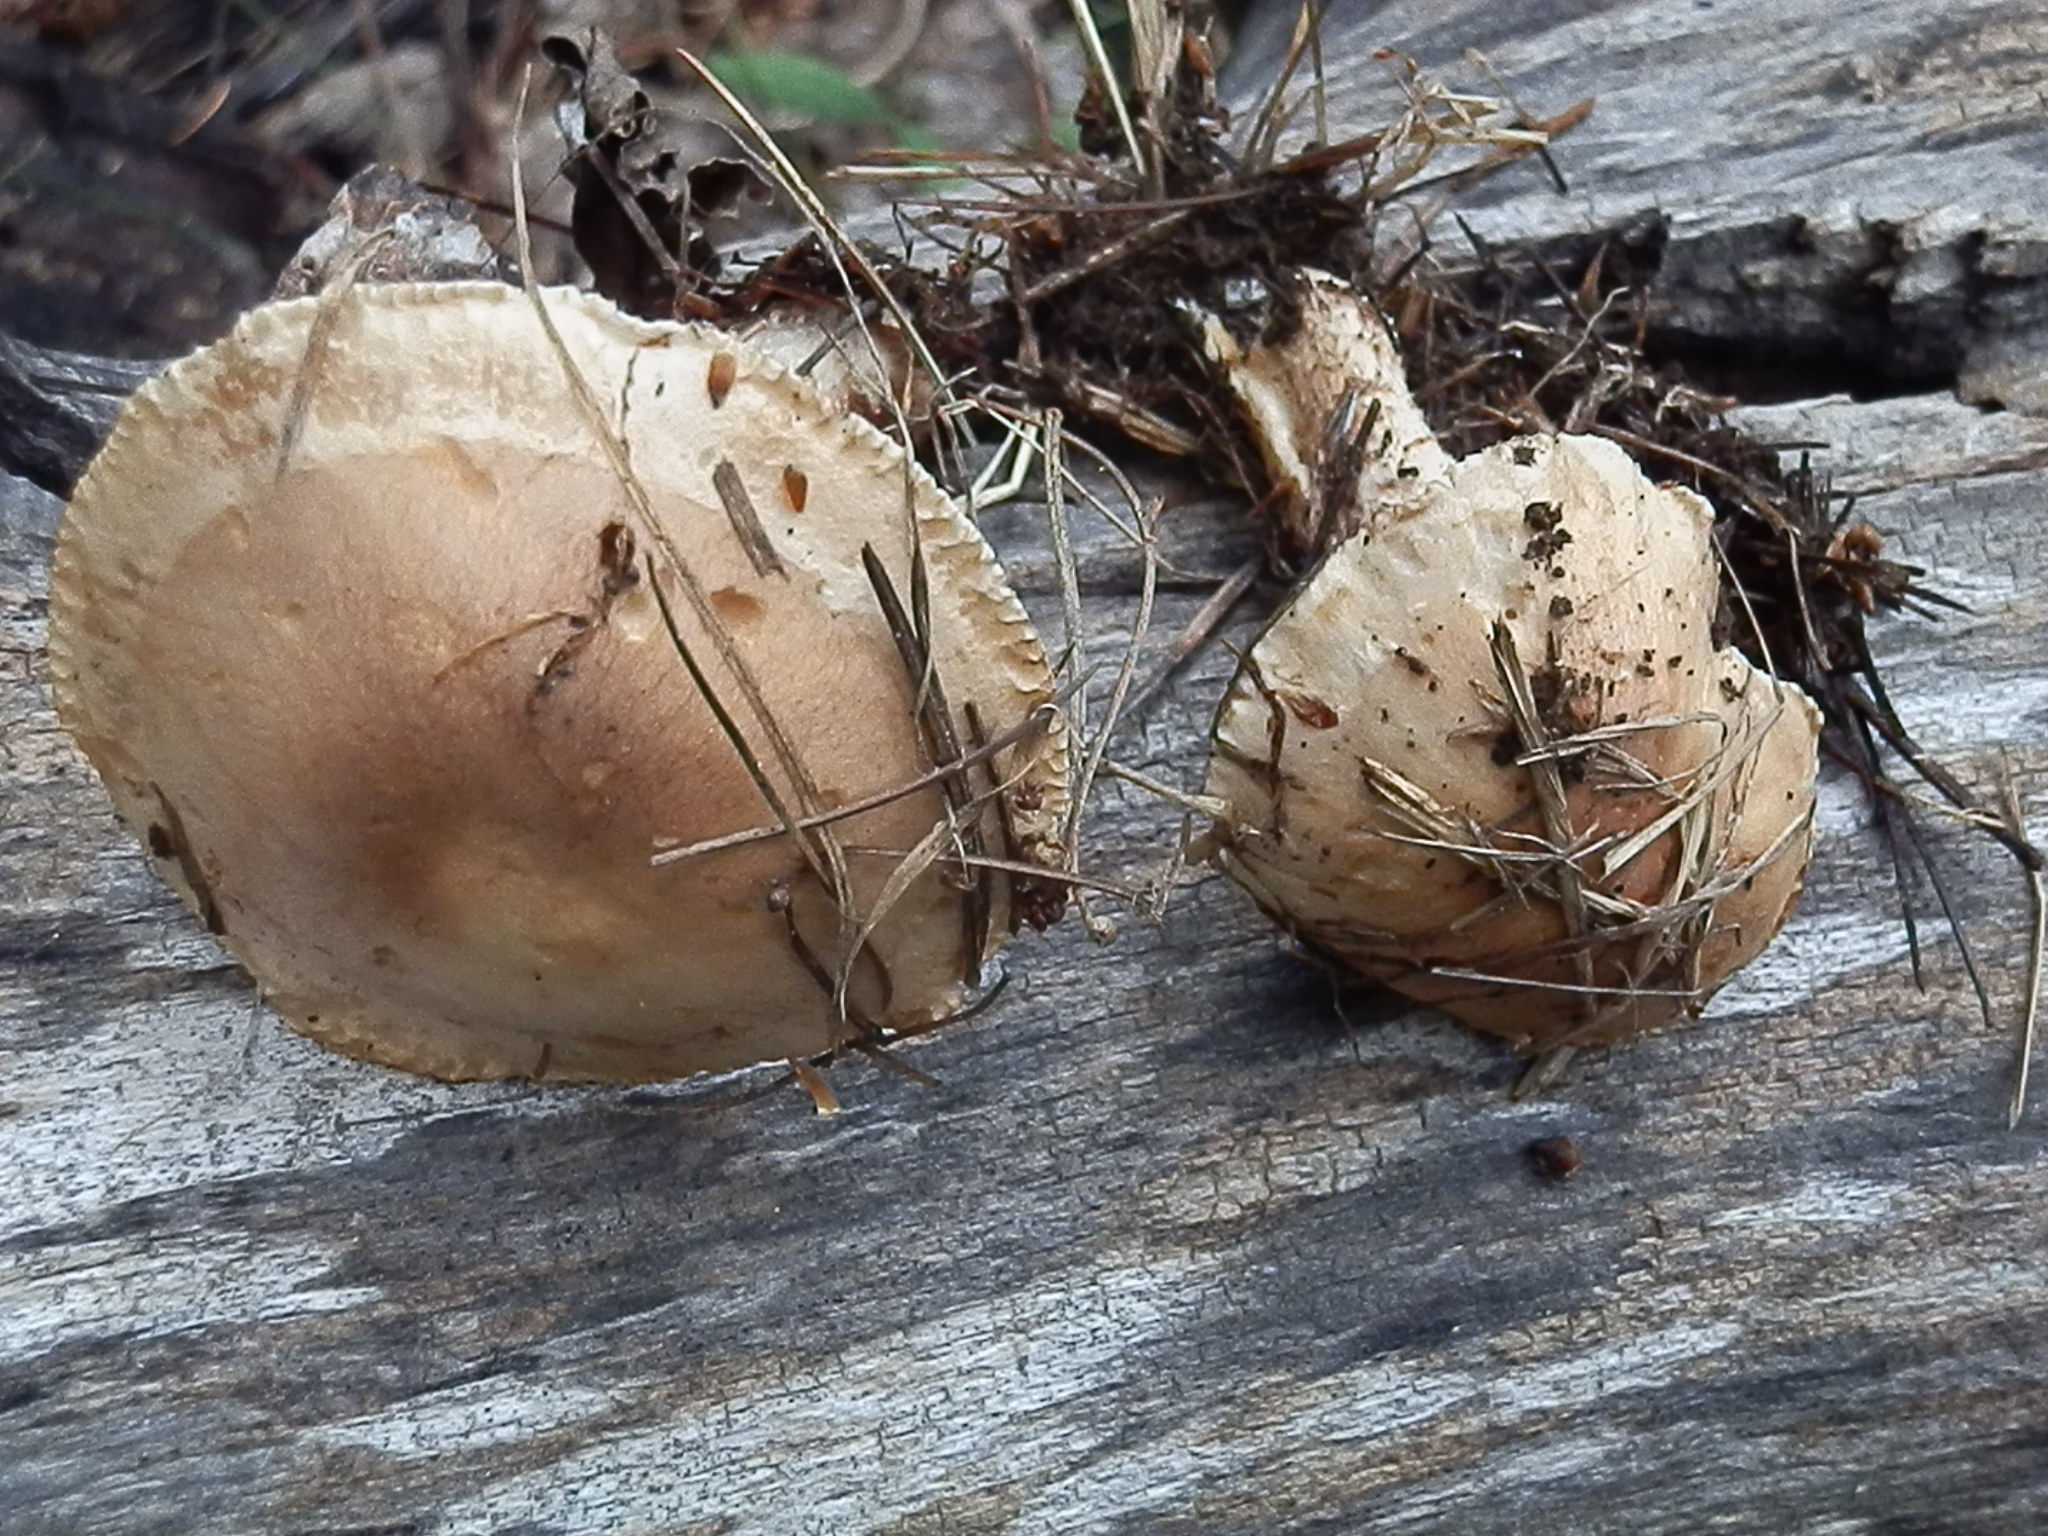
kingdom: Fungi
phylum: Basidiomycota
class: Agaricomycetes
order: Agaricales
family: Hymenogastraceae
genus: Hebeloma
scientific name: Hebeloma albomarginatum
